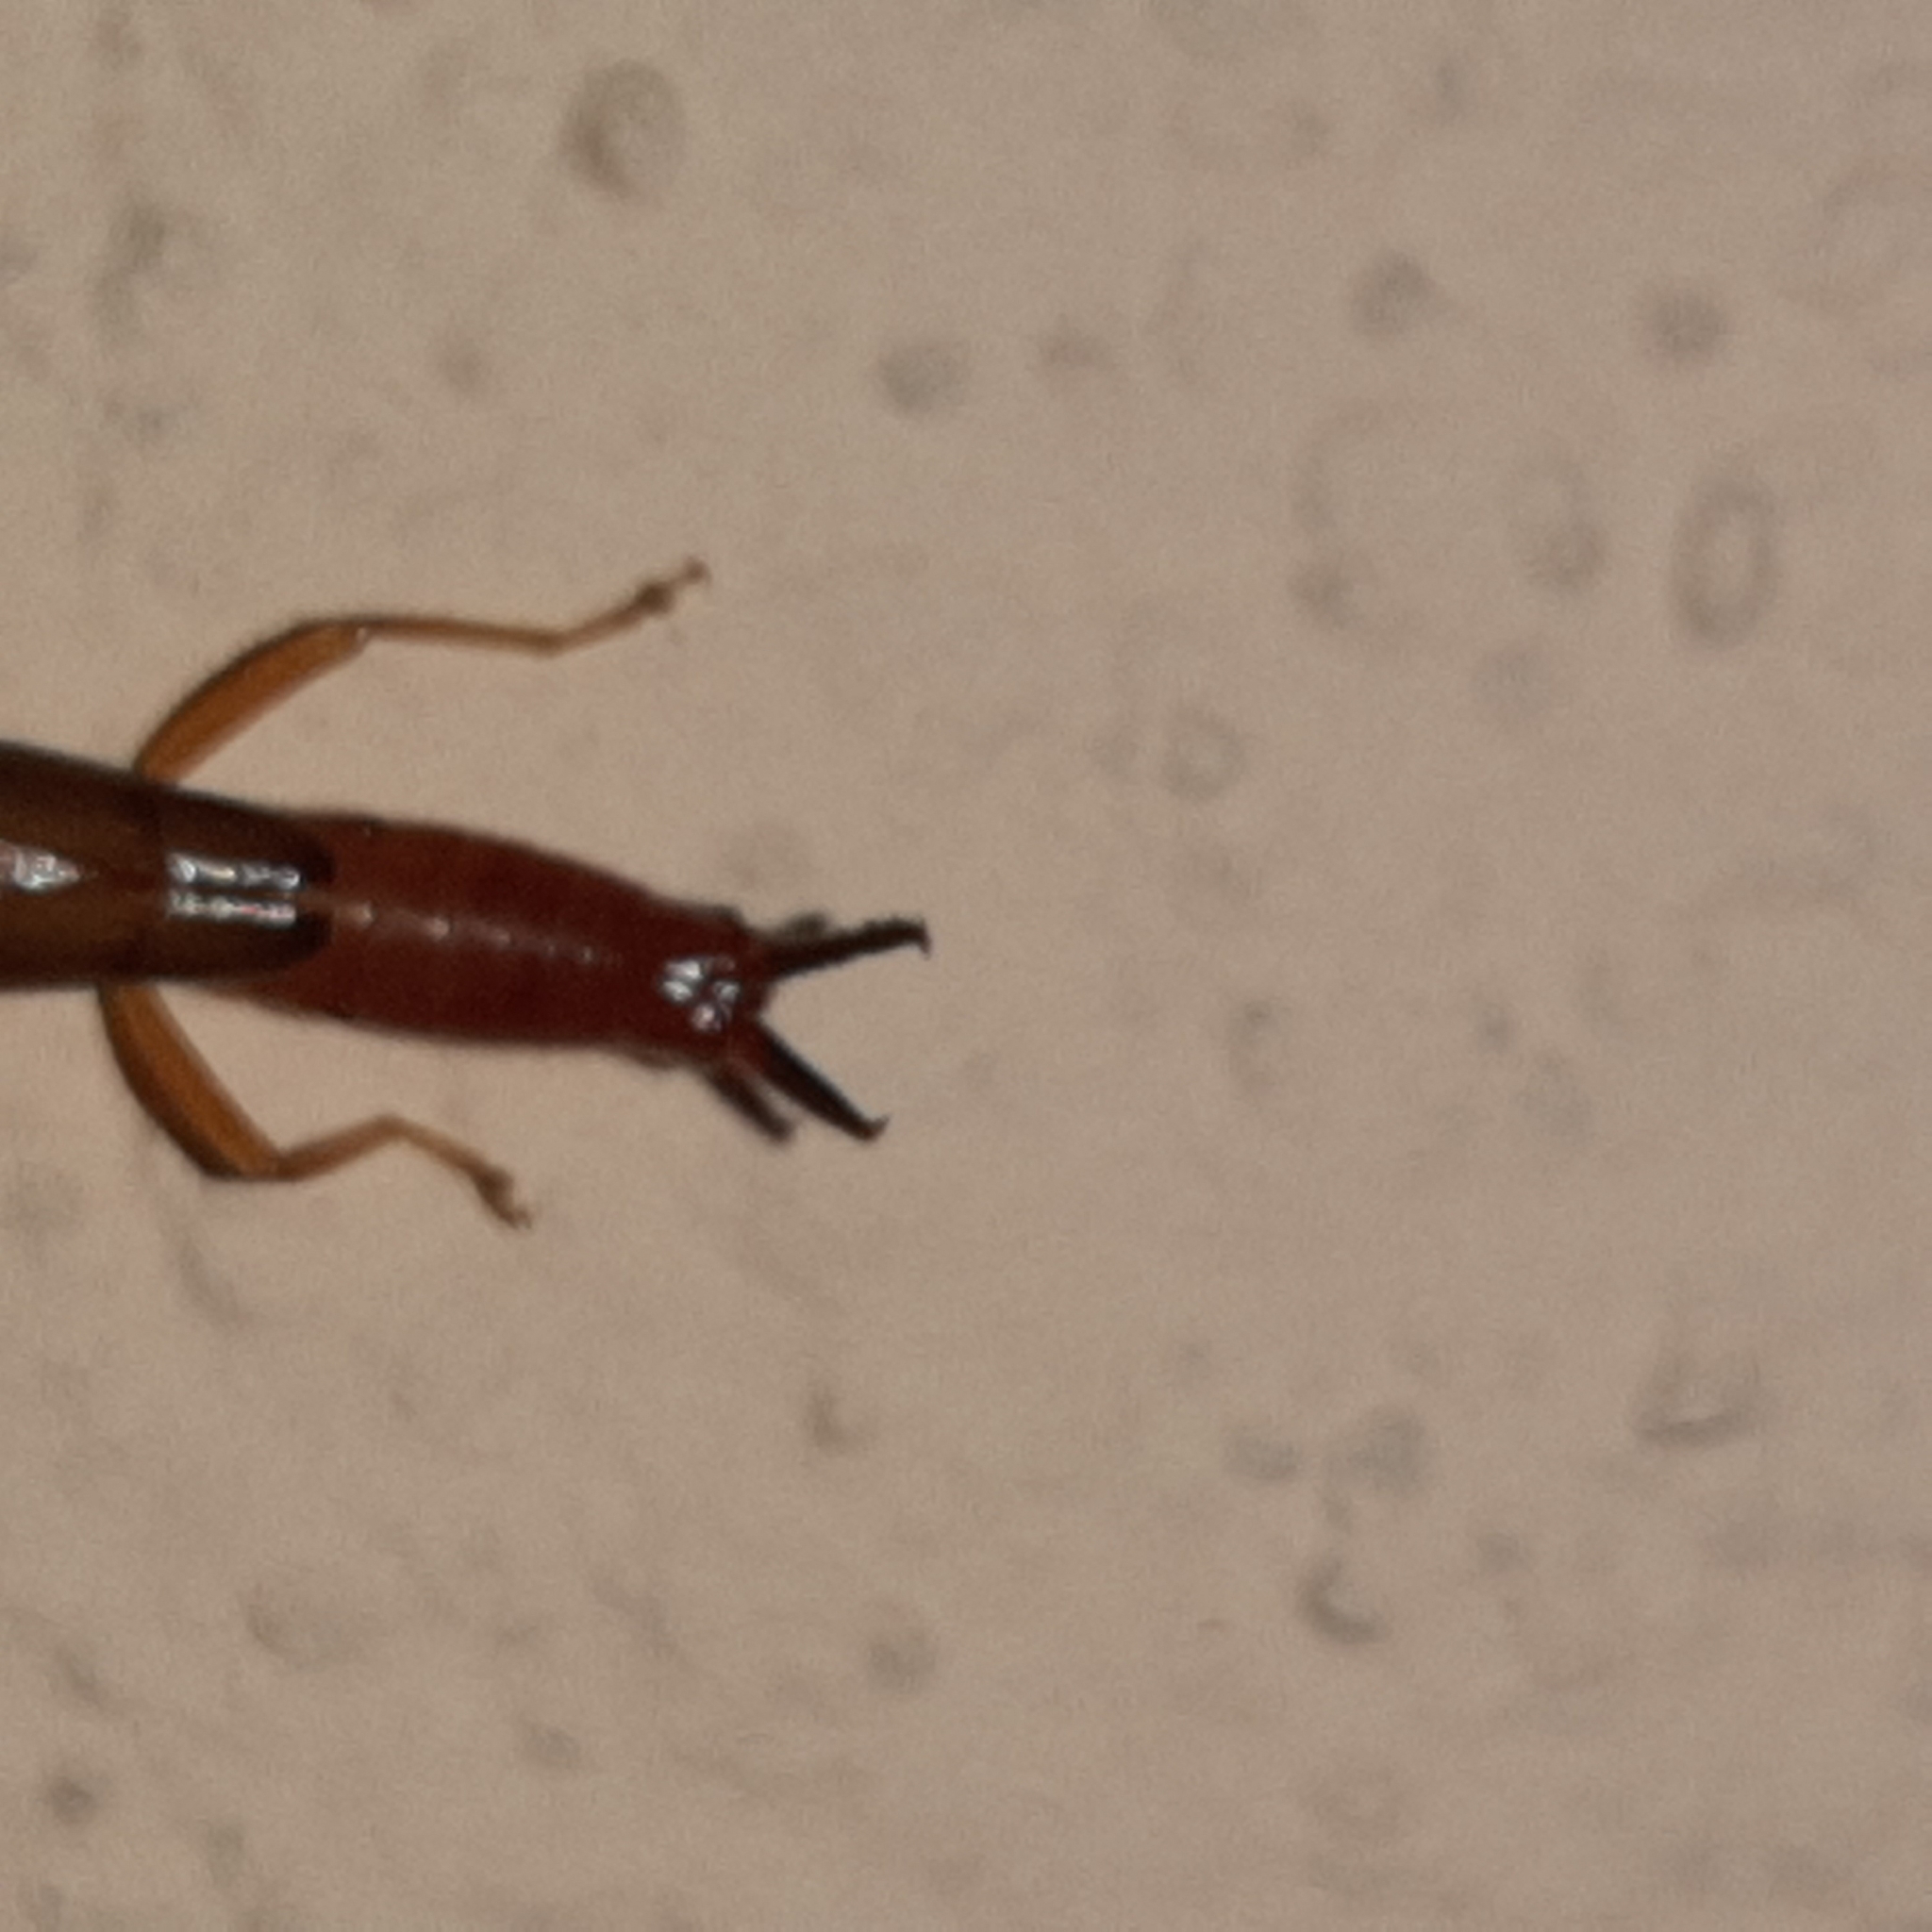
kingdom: Animalia
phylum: Arthropoda
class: Insecta
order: Dermaptera
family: Forficulidae
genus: Sarcinatrix
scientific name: Sarcinatrix anomalia
